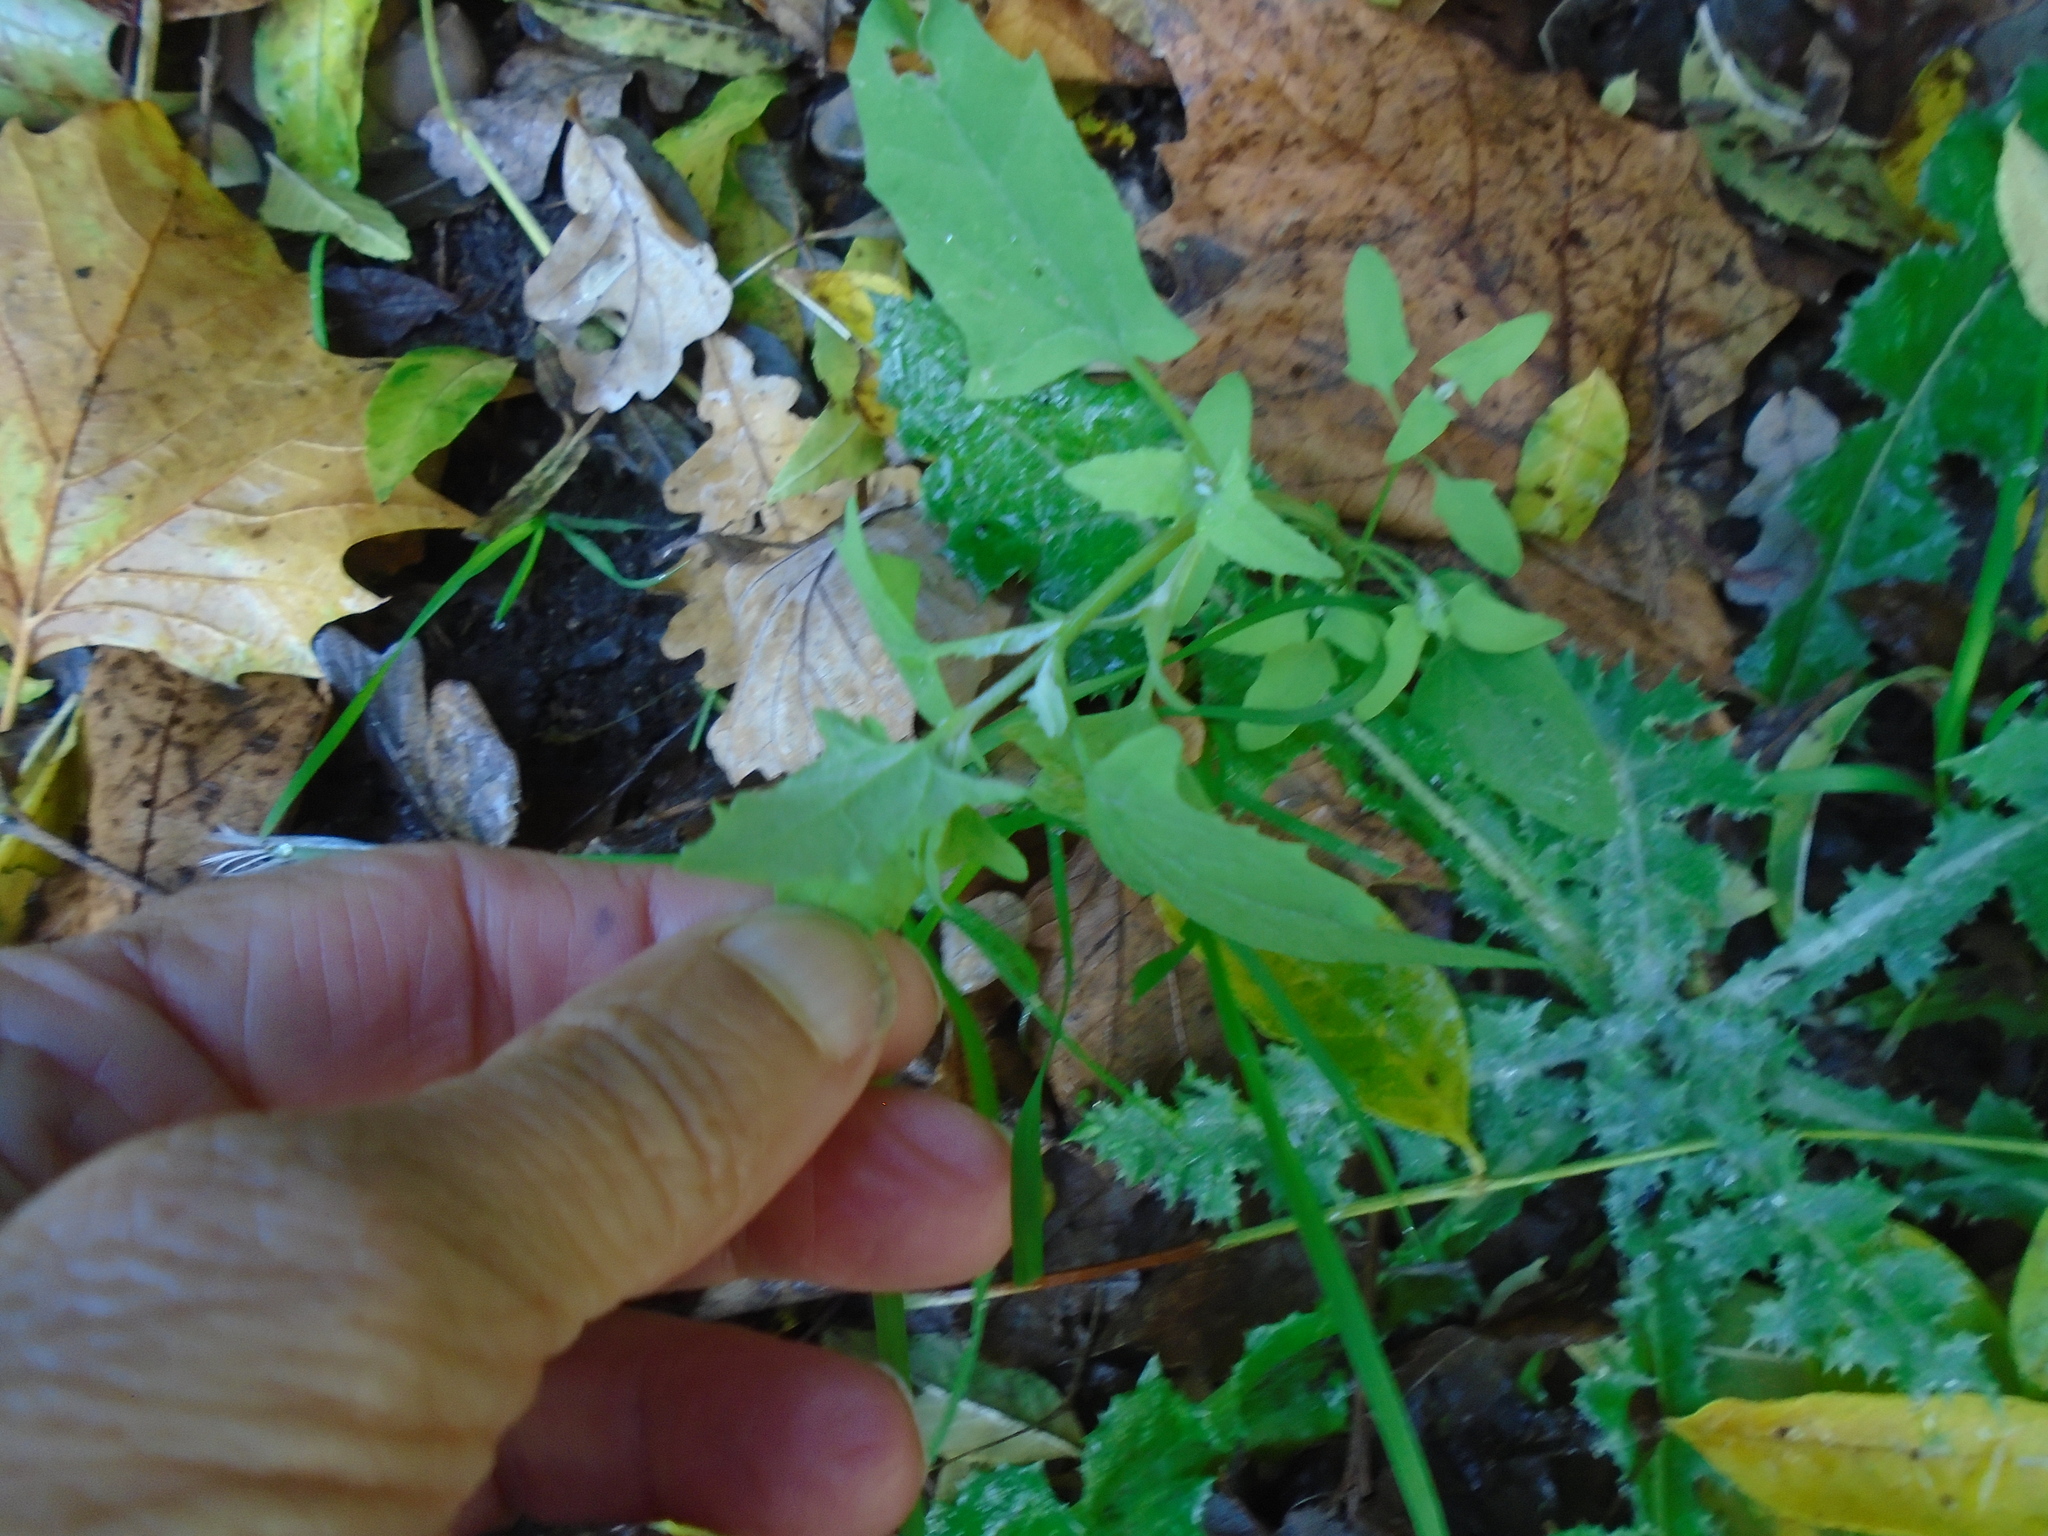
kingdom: Plantae
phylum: Tracheophyta
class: Magnoliopsida
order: Caryophyllales
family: Amaranthaceae
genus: Chenopodium
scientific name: Chenopodium album
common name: Fat-hen
